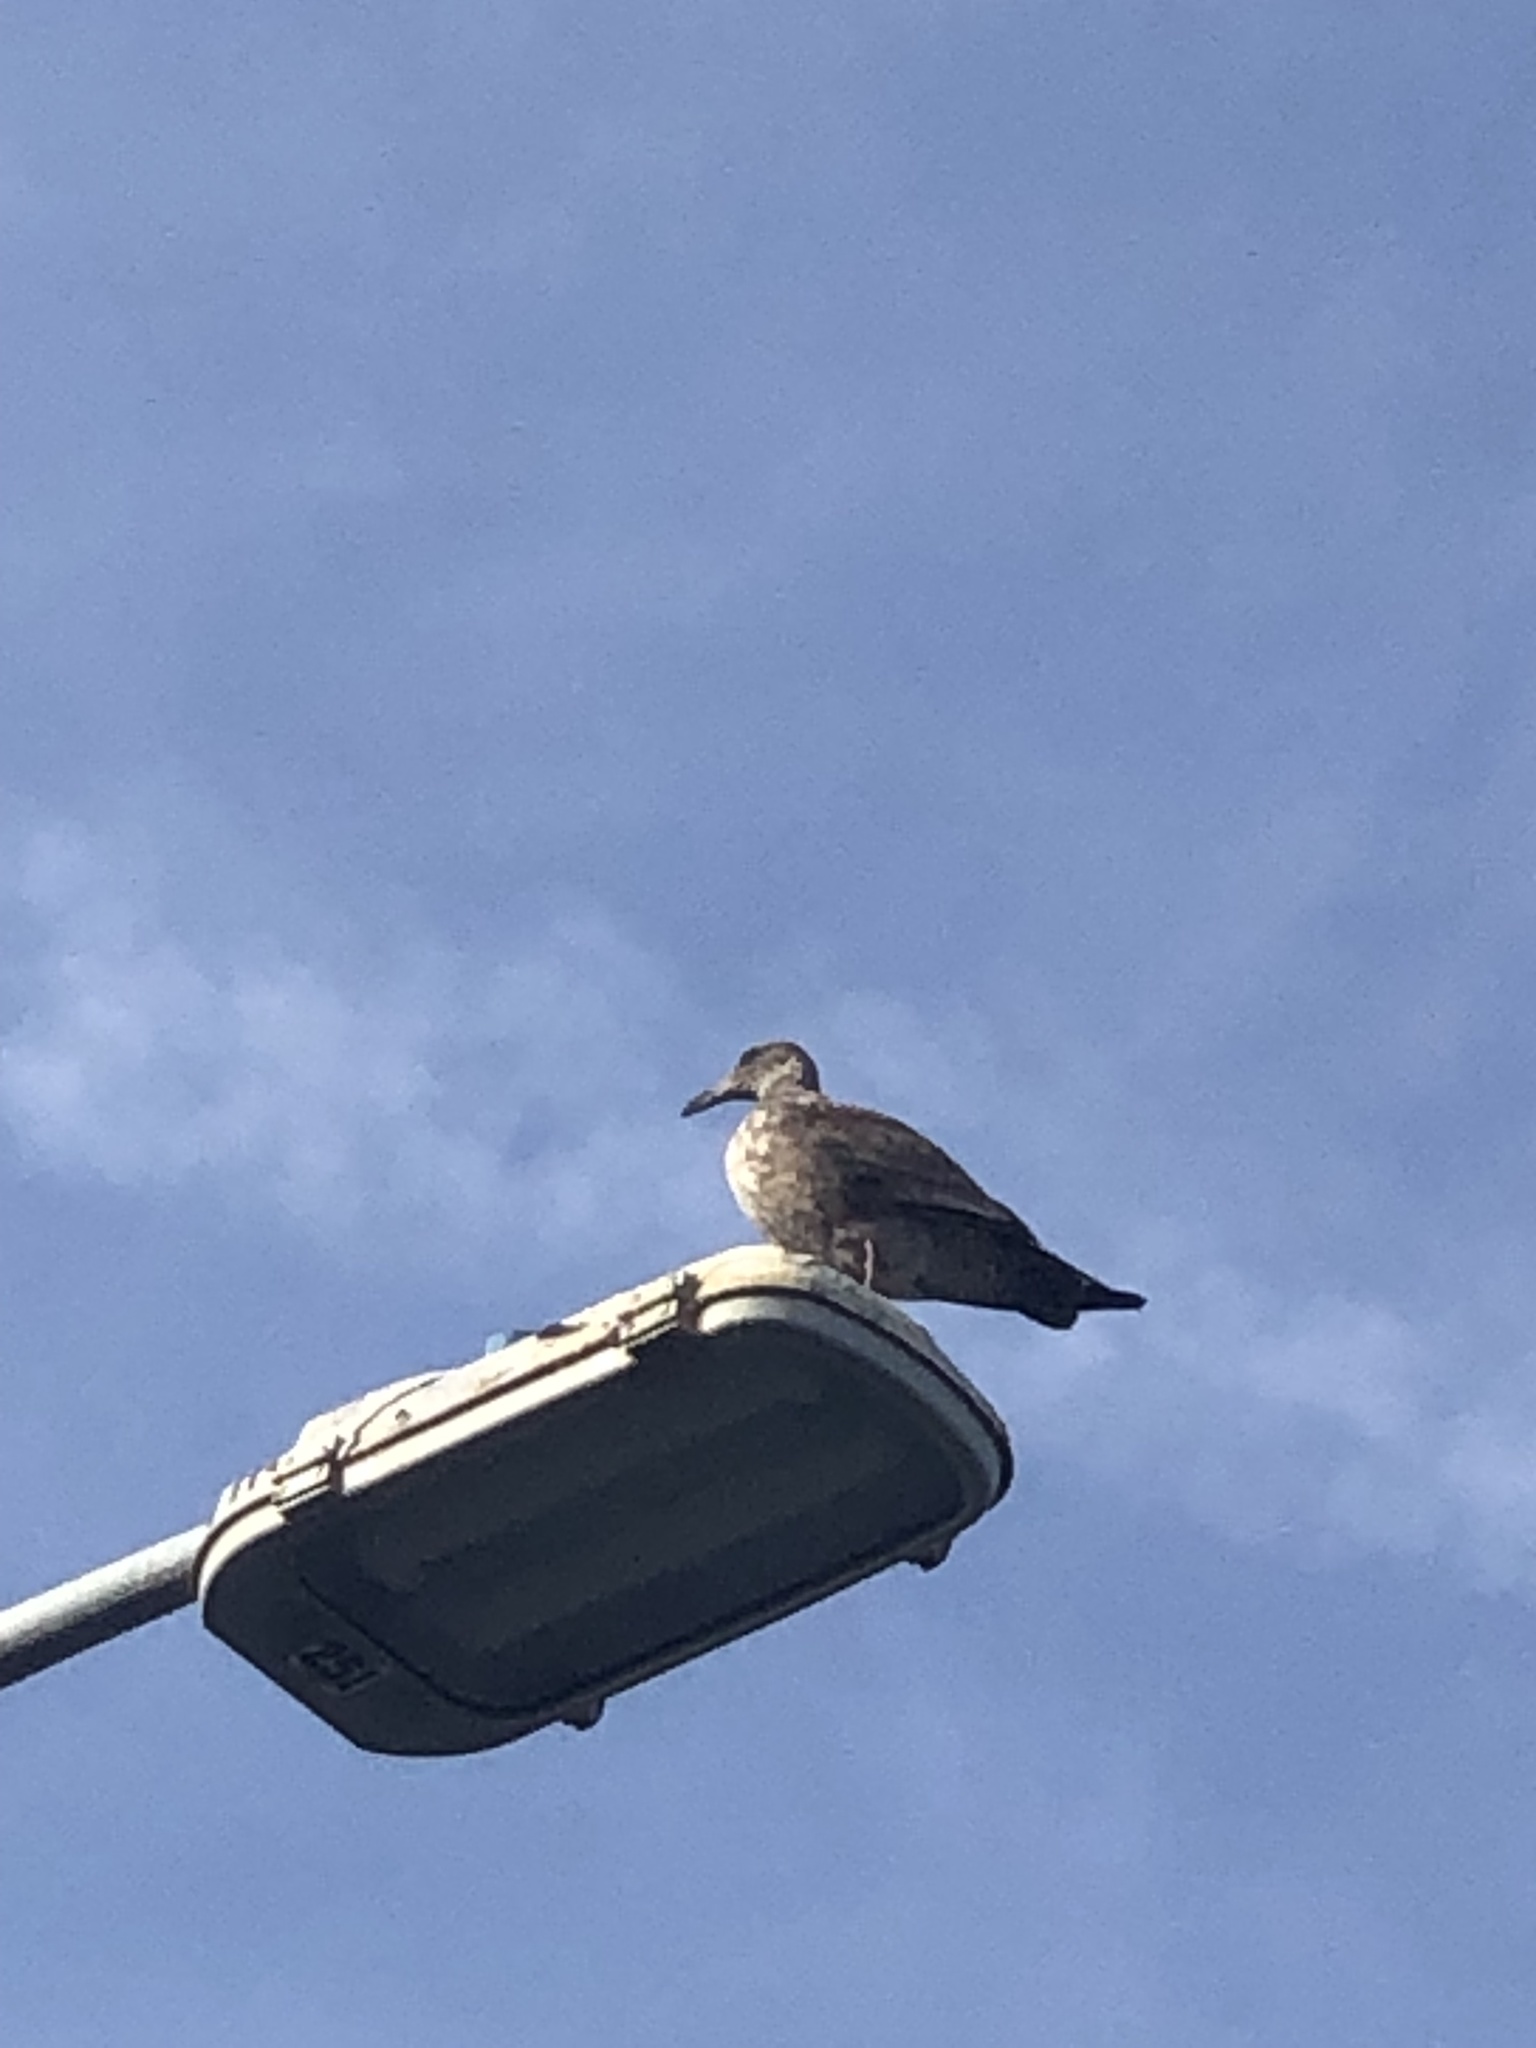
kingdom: Animalia
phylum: Chordata
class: Aves
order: Charadriiformes
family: Laridae
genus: Larus
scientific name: Larus occidentalis
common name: Western gull
